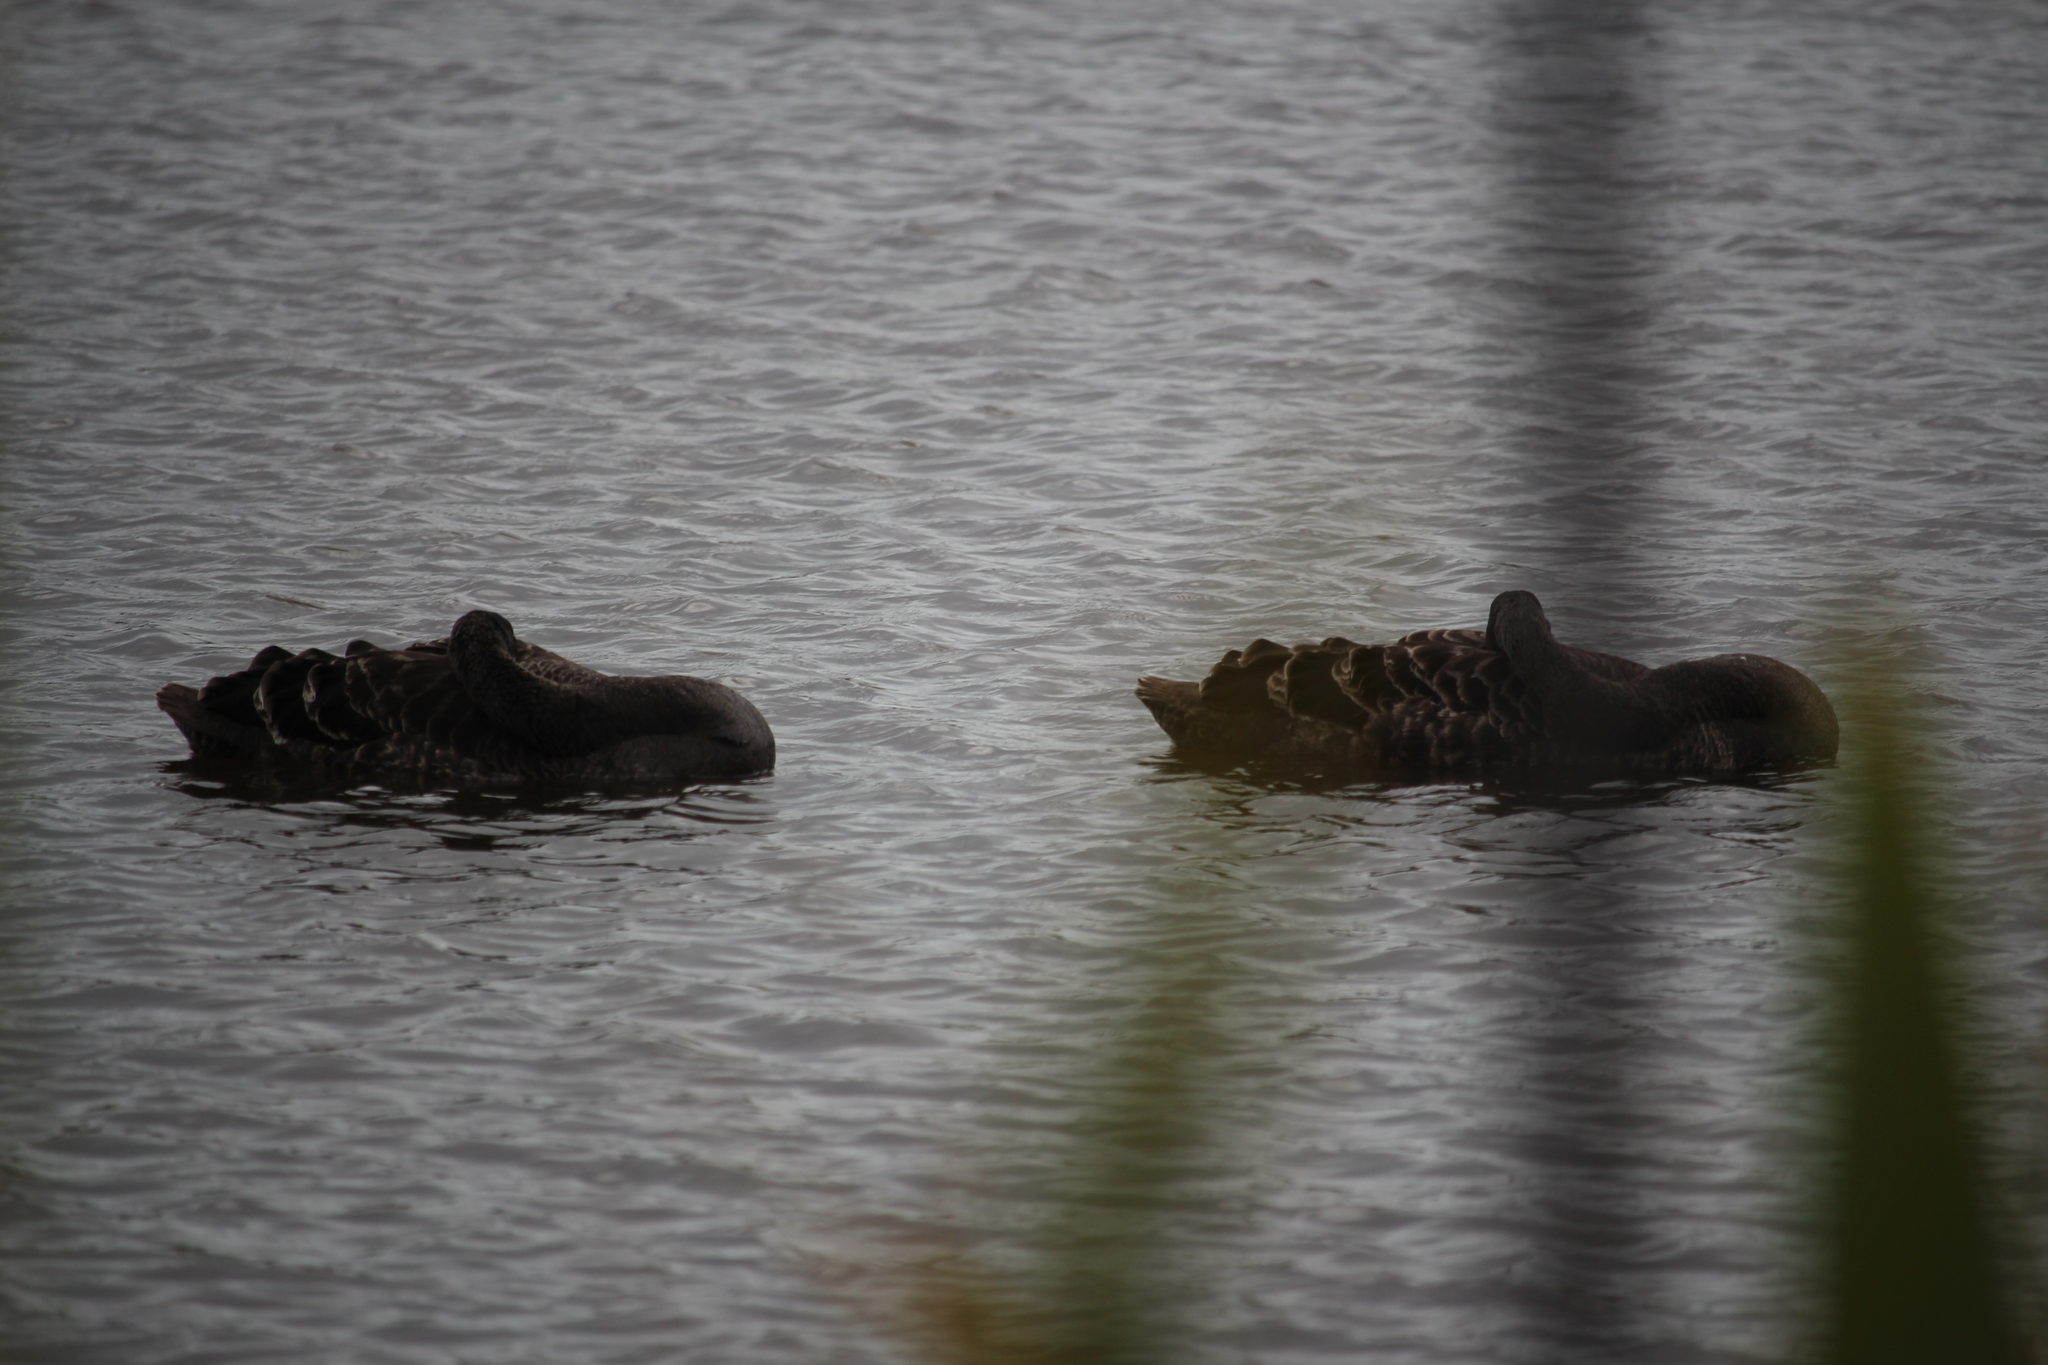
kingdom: Animalia
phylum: Chordata
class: Aves
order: Anseriformes
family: Anatidae
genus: Cygnus
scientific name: Cygnus atratus
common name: Black swan
